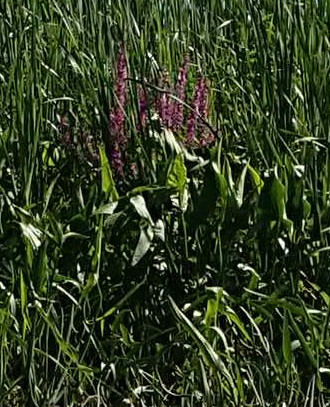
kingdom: Plantae
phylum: Tracheophyta
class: Magnoliopsida
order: Myrtales
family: Lythraceae
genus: Lythrum
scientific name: Lythrum salicaria
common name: Purple loosestrife
